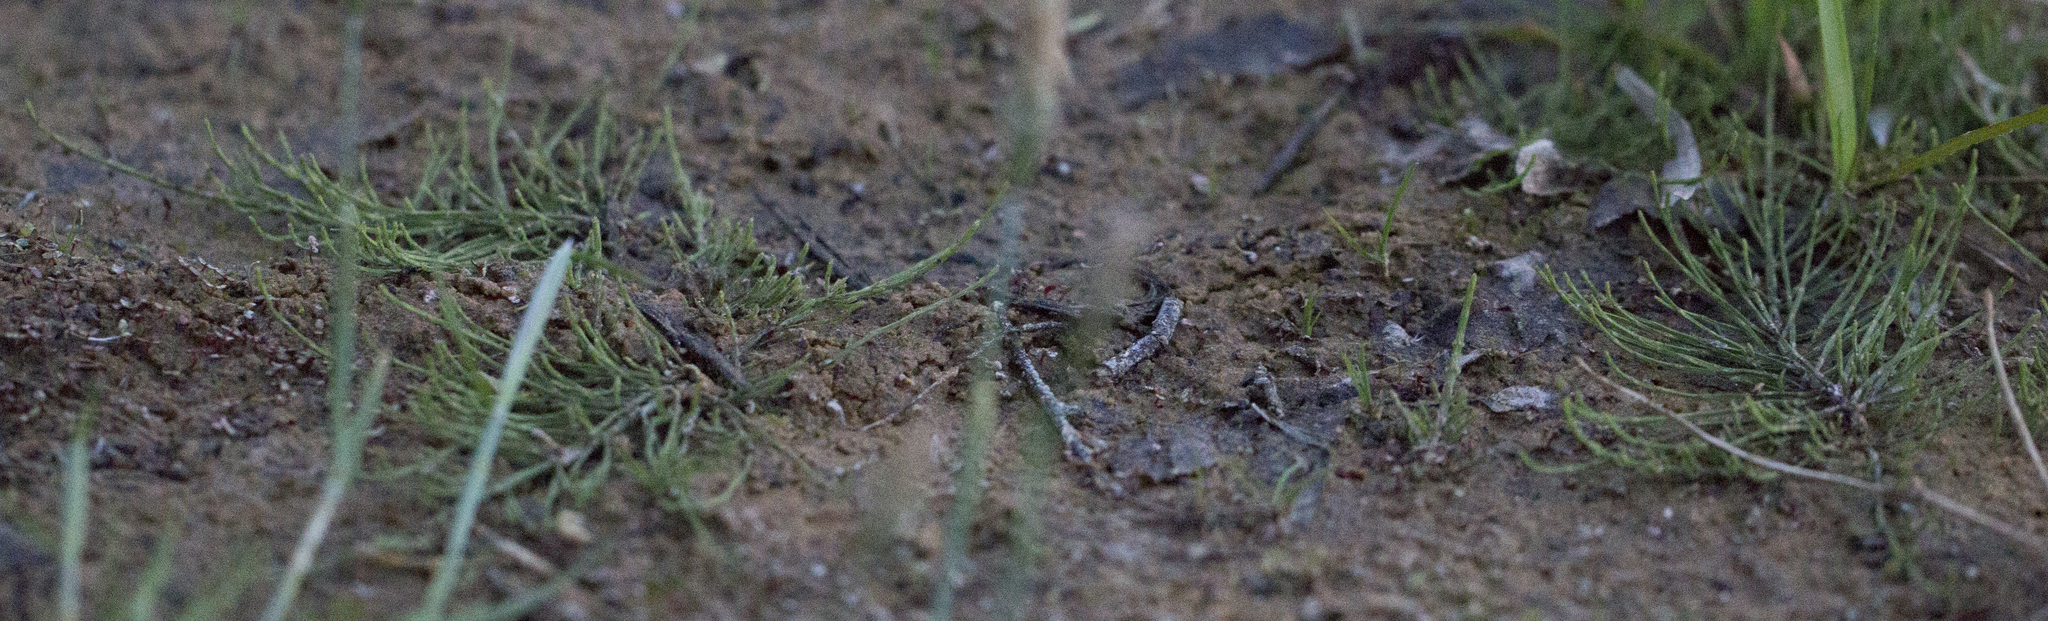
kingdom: Plantae
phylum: Tracheophyta
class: Polypodiopsida
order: Equisetales
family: Equisetaceae
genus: Equisetum
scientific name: Equisetum arvense
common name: Field horsetail
